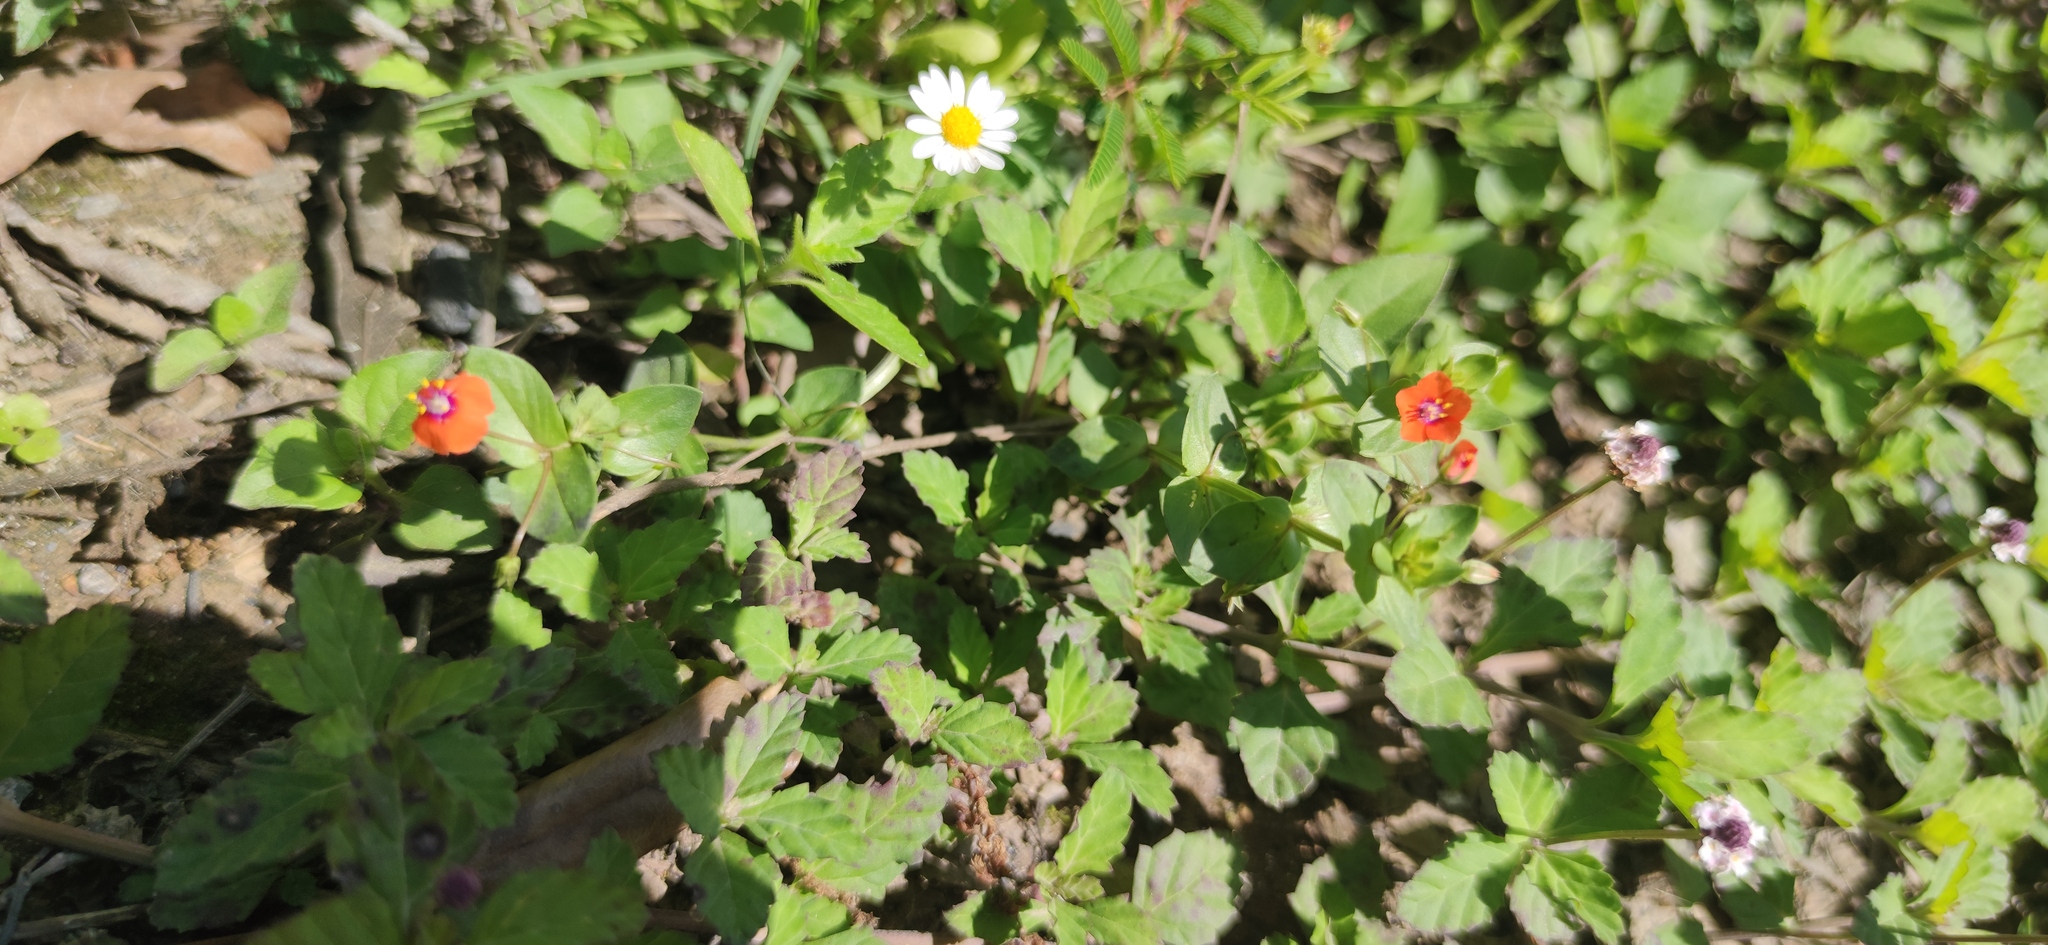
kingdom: Plantae
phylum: Tracheophyta
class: Magnoliopsida
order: Ericales
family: Primulaceae
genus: Lysimachia
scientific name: Lysimachia arvensis
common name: Scarlet pimpernel
